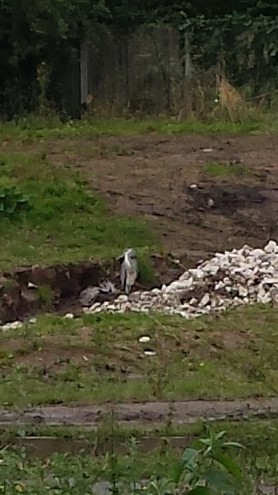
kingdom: Animalia
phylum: Chordata
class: Aves
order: Pelecaniformes
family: Ardeidae
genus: Ardea
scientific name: Ardea cinerea
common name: Grey heron
